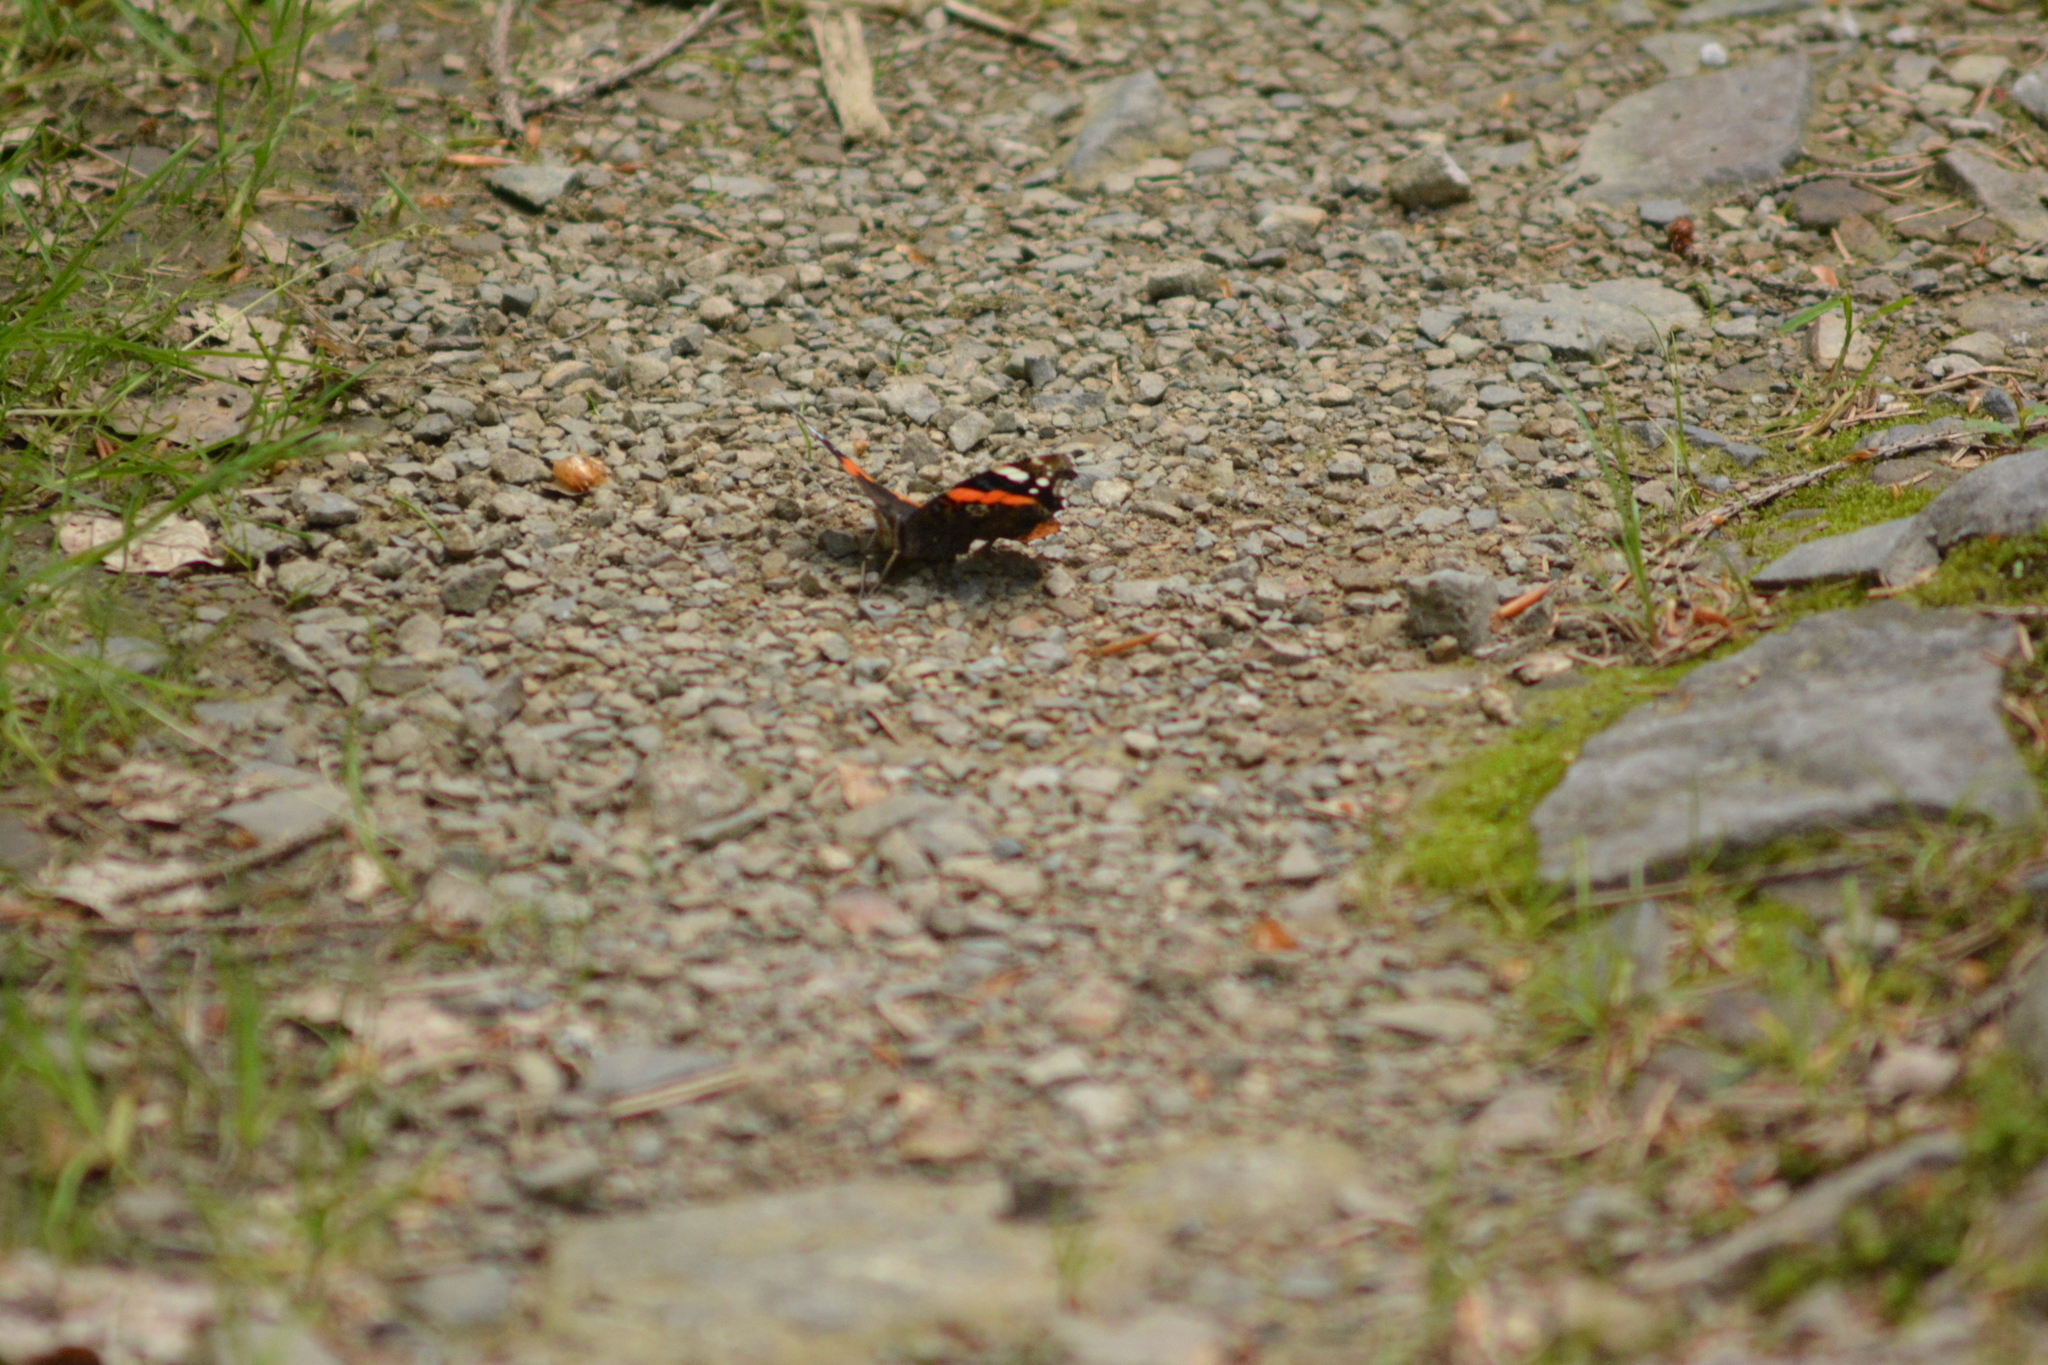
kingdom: Animalia
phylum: Arthropoda
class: Insecta
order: Lepidoptera
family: Nymphalidae
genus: Vanessa
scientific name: Vanessa atalanta
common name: Red admiral
